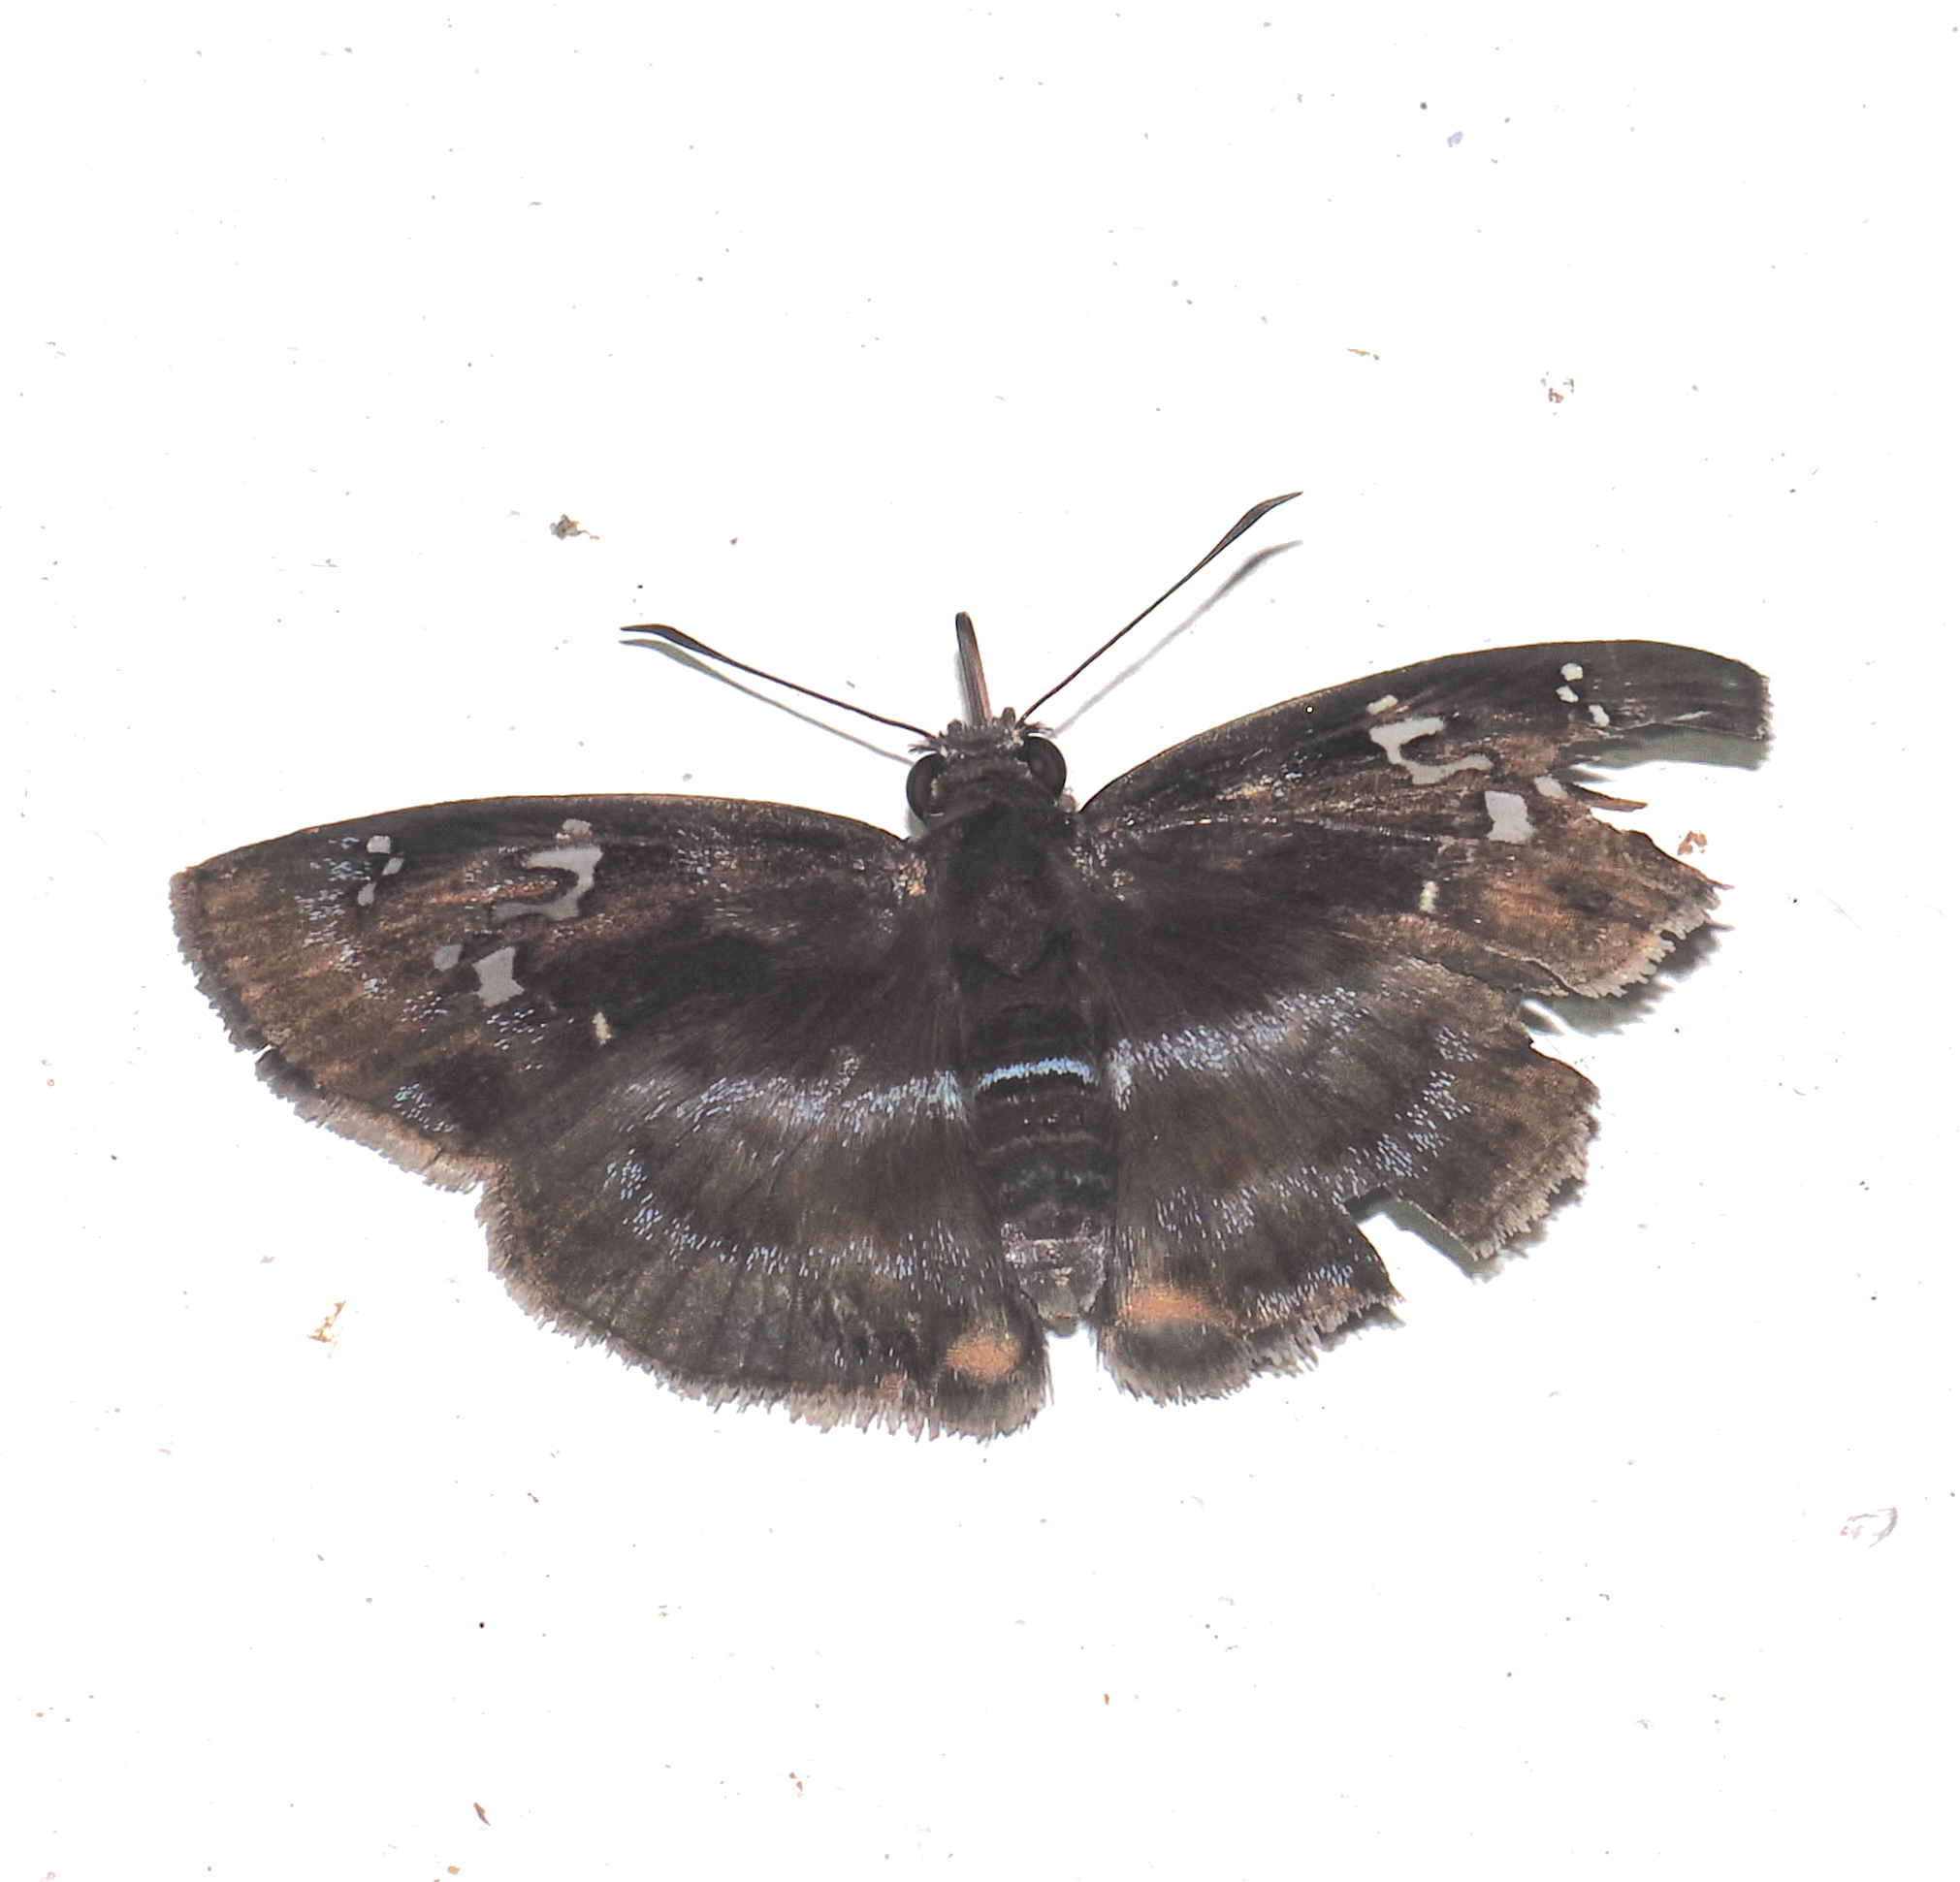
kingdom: Animalia
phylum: Arthropoda
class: Insecta
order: Lepidoptera
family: Hesperiidae
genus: Quadrus
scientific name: Quadrus cerialis
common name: Common blue-skipper
